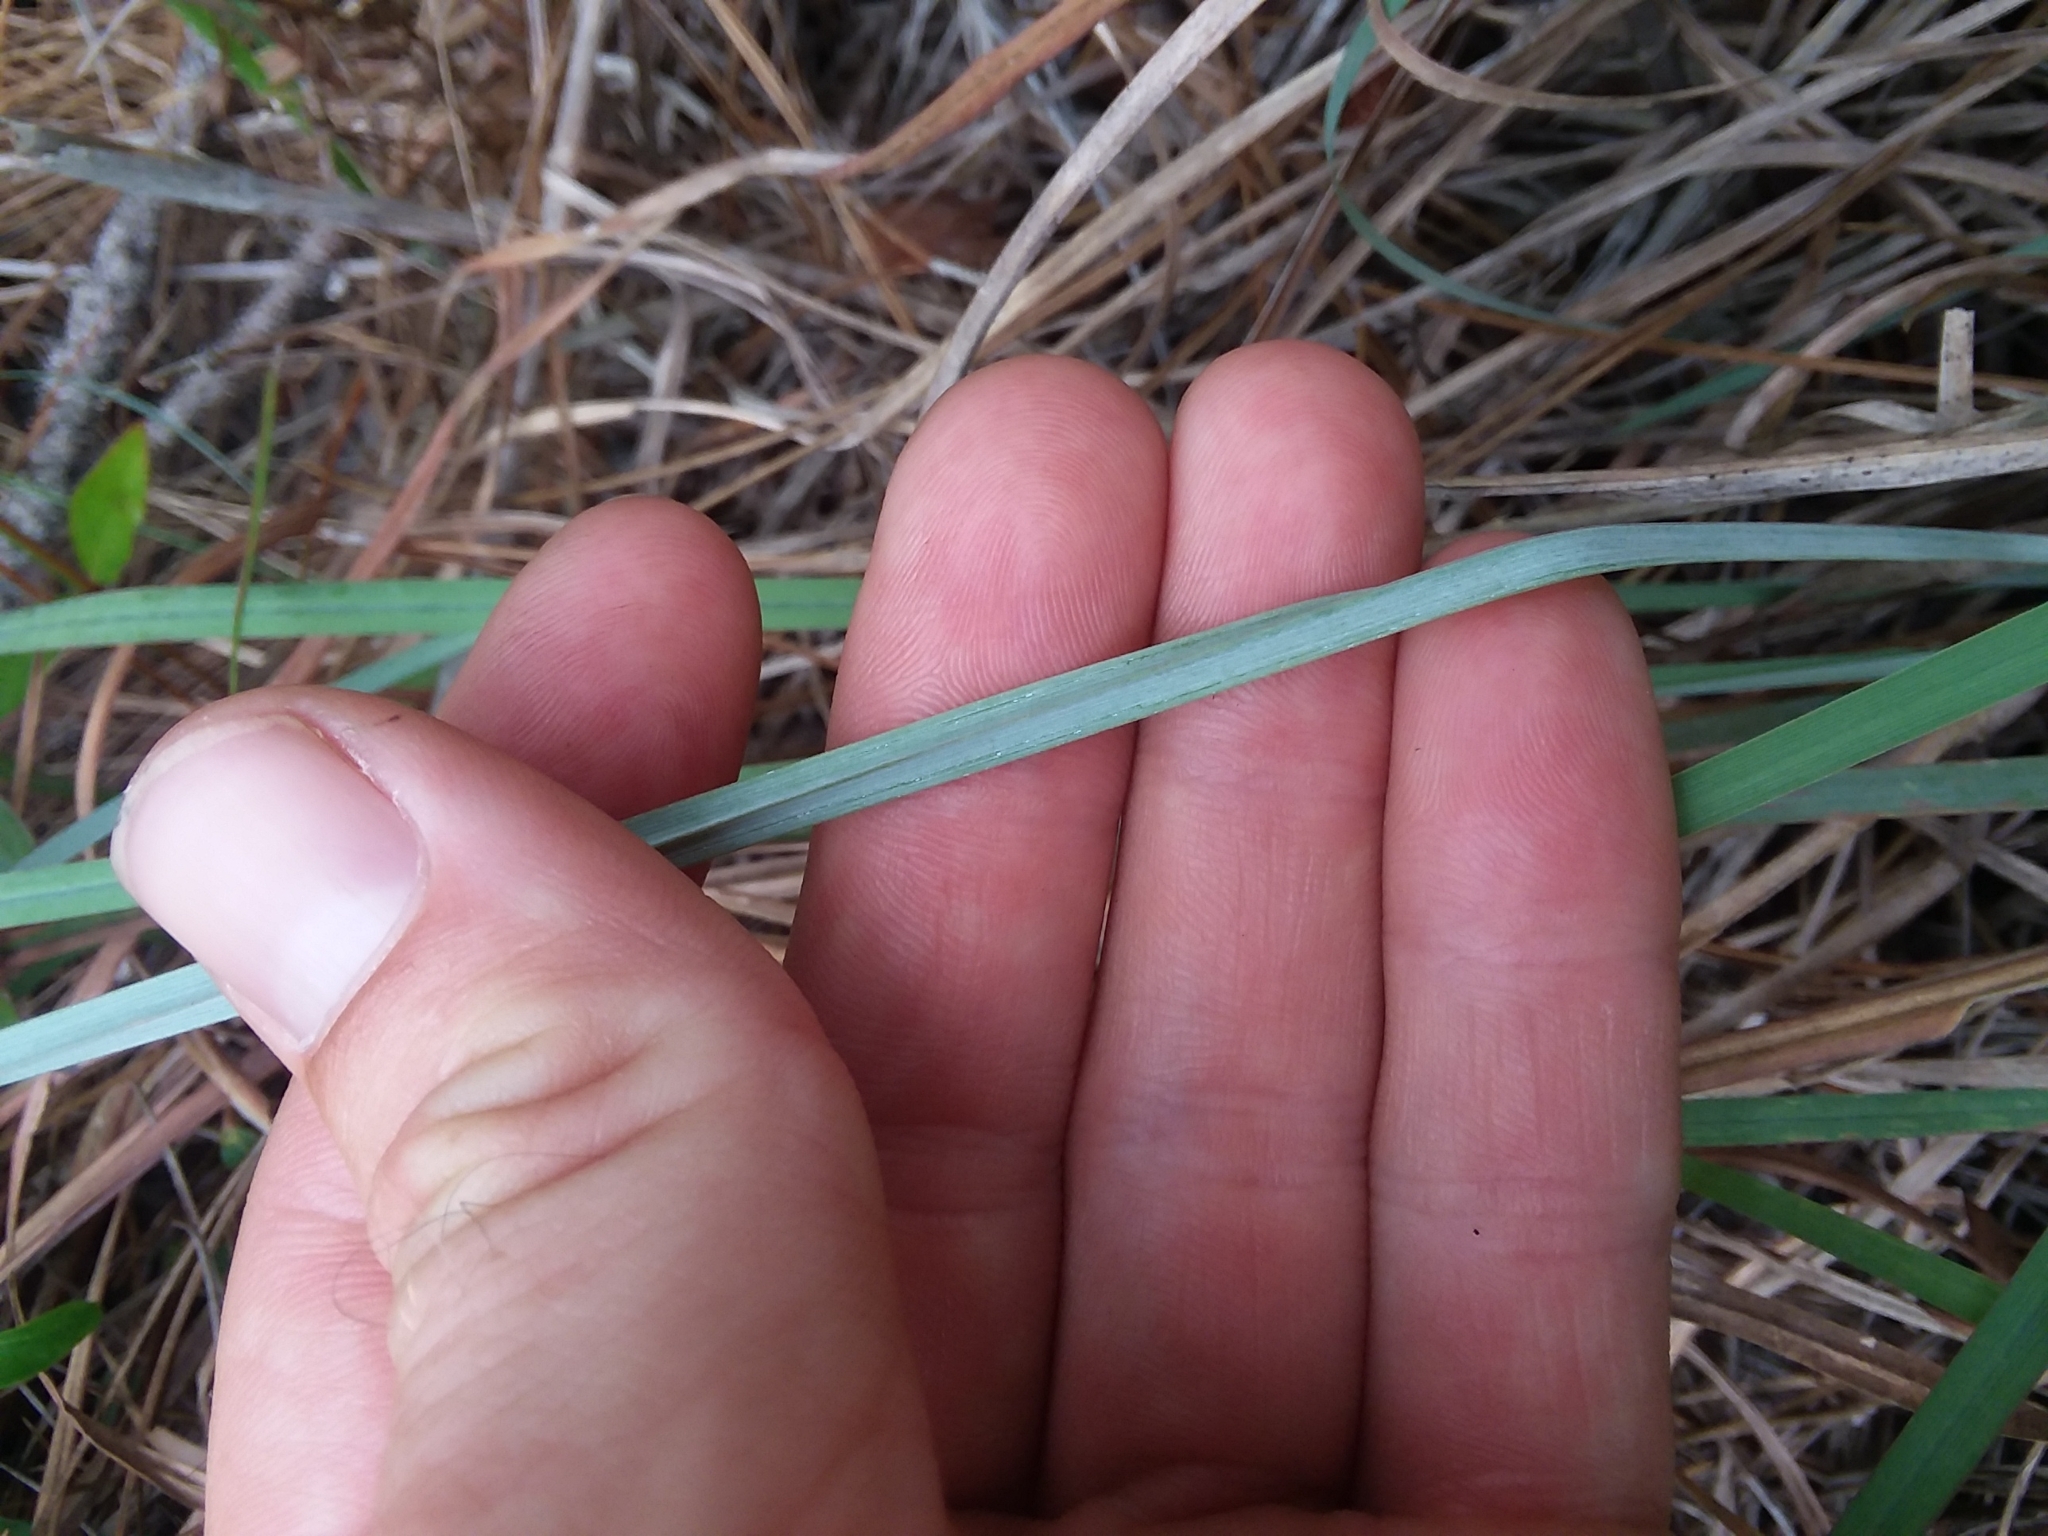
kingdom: Plantae
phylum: Tracheophyta
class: Liliopsida
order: Poales
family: Poaceae
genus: Andropogon
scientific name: Andropogon cretaceus
